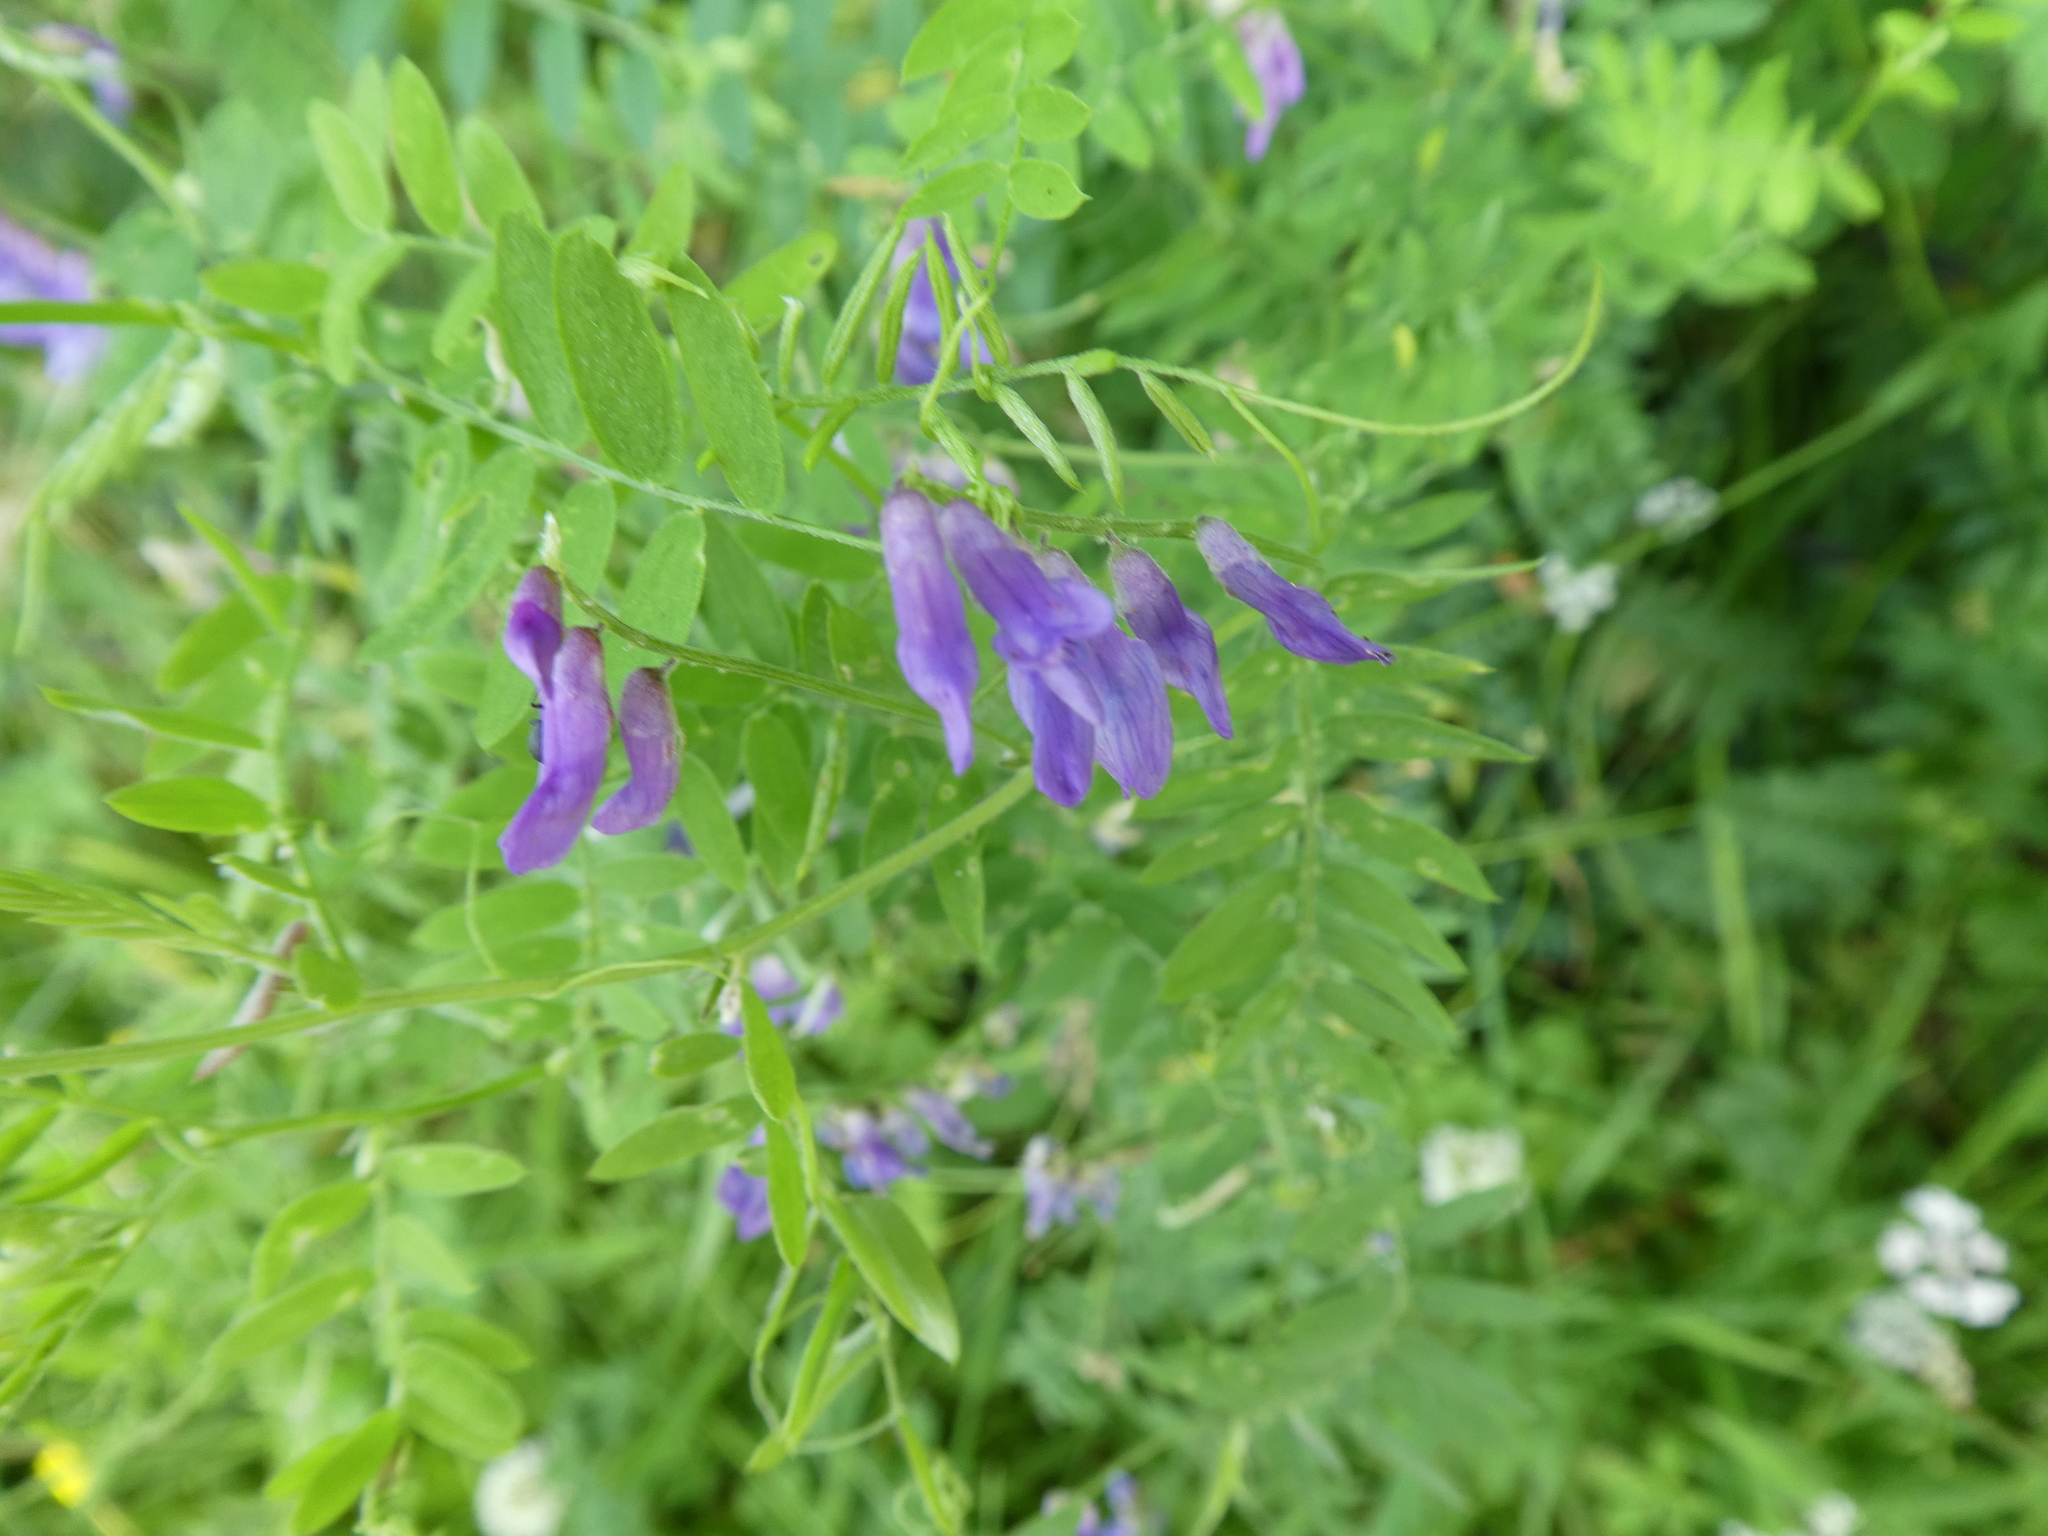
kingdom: Plantae
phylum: Tracheophyta
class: Magnoliopsida
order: Fabales
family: Fabaceae
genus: Vicia
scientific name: Vicia cracca
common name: Bird vetch
